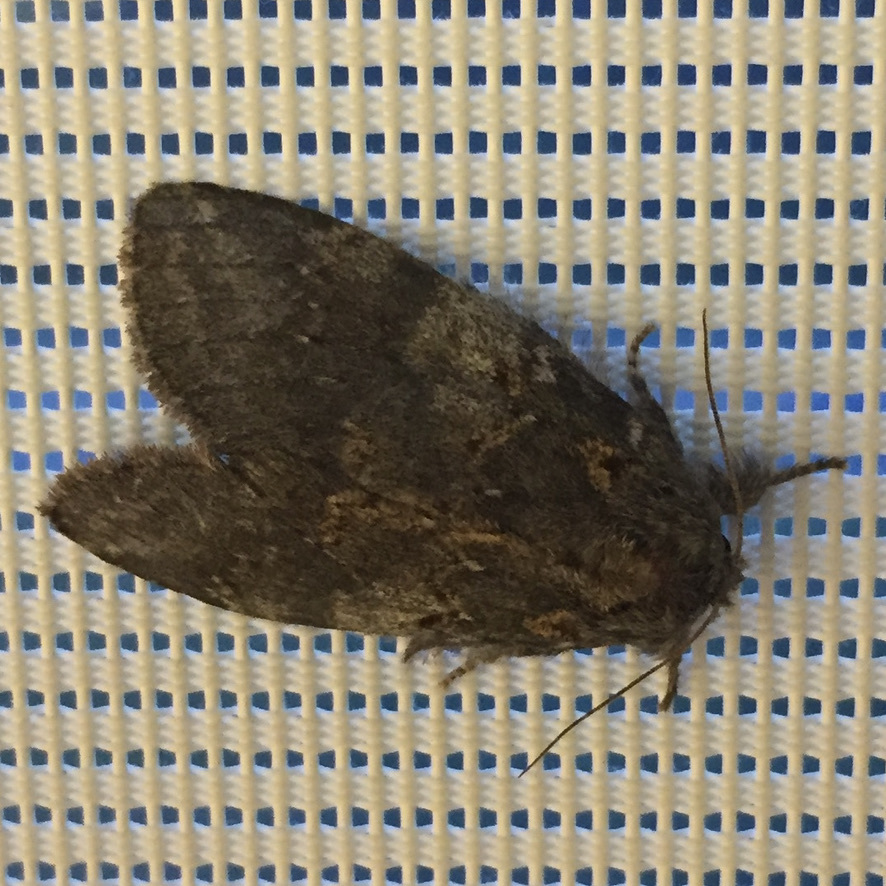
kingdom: Animalia
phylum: Arthropoda
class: Insecta
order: Lepidoptera
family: Notodontidae
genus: Peridea
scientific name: Peridea angulosa
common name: Angulose prominent
